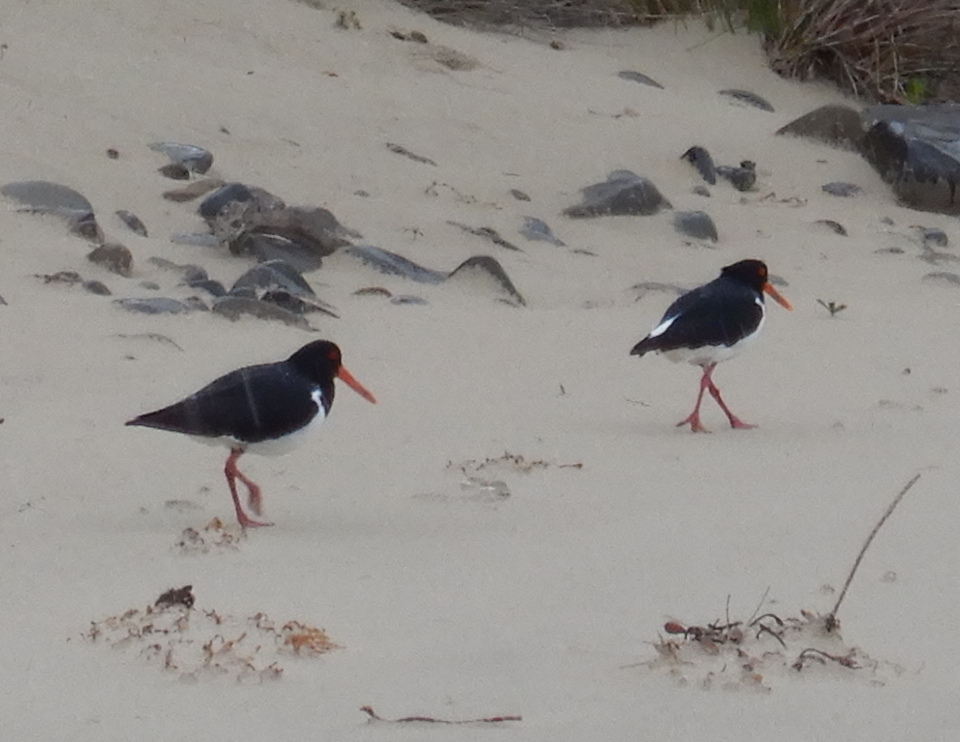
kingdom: Animalia
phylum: Chordata
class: Aves
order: Charadriiformes
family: Haematopodidae
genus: Haematopus
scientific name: Haematopus longirostris
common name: Pied oystercatcher
